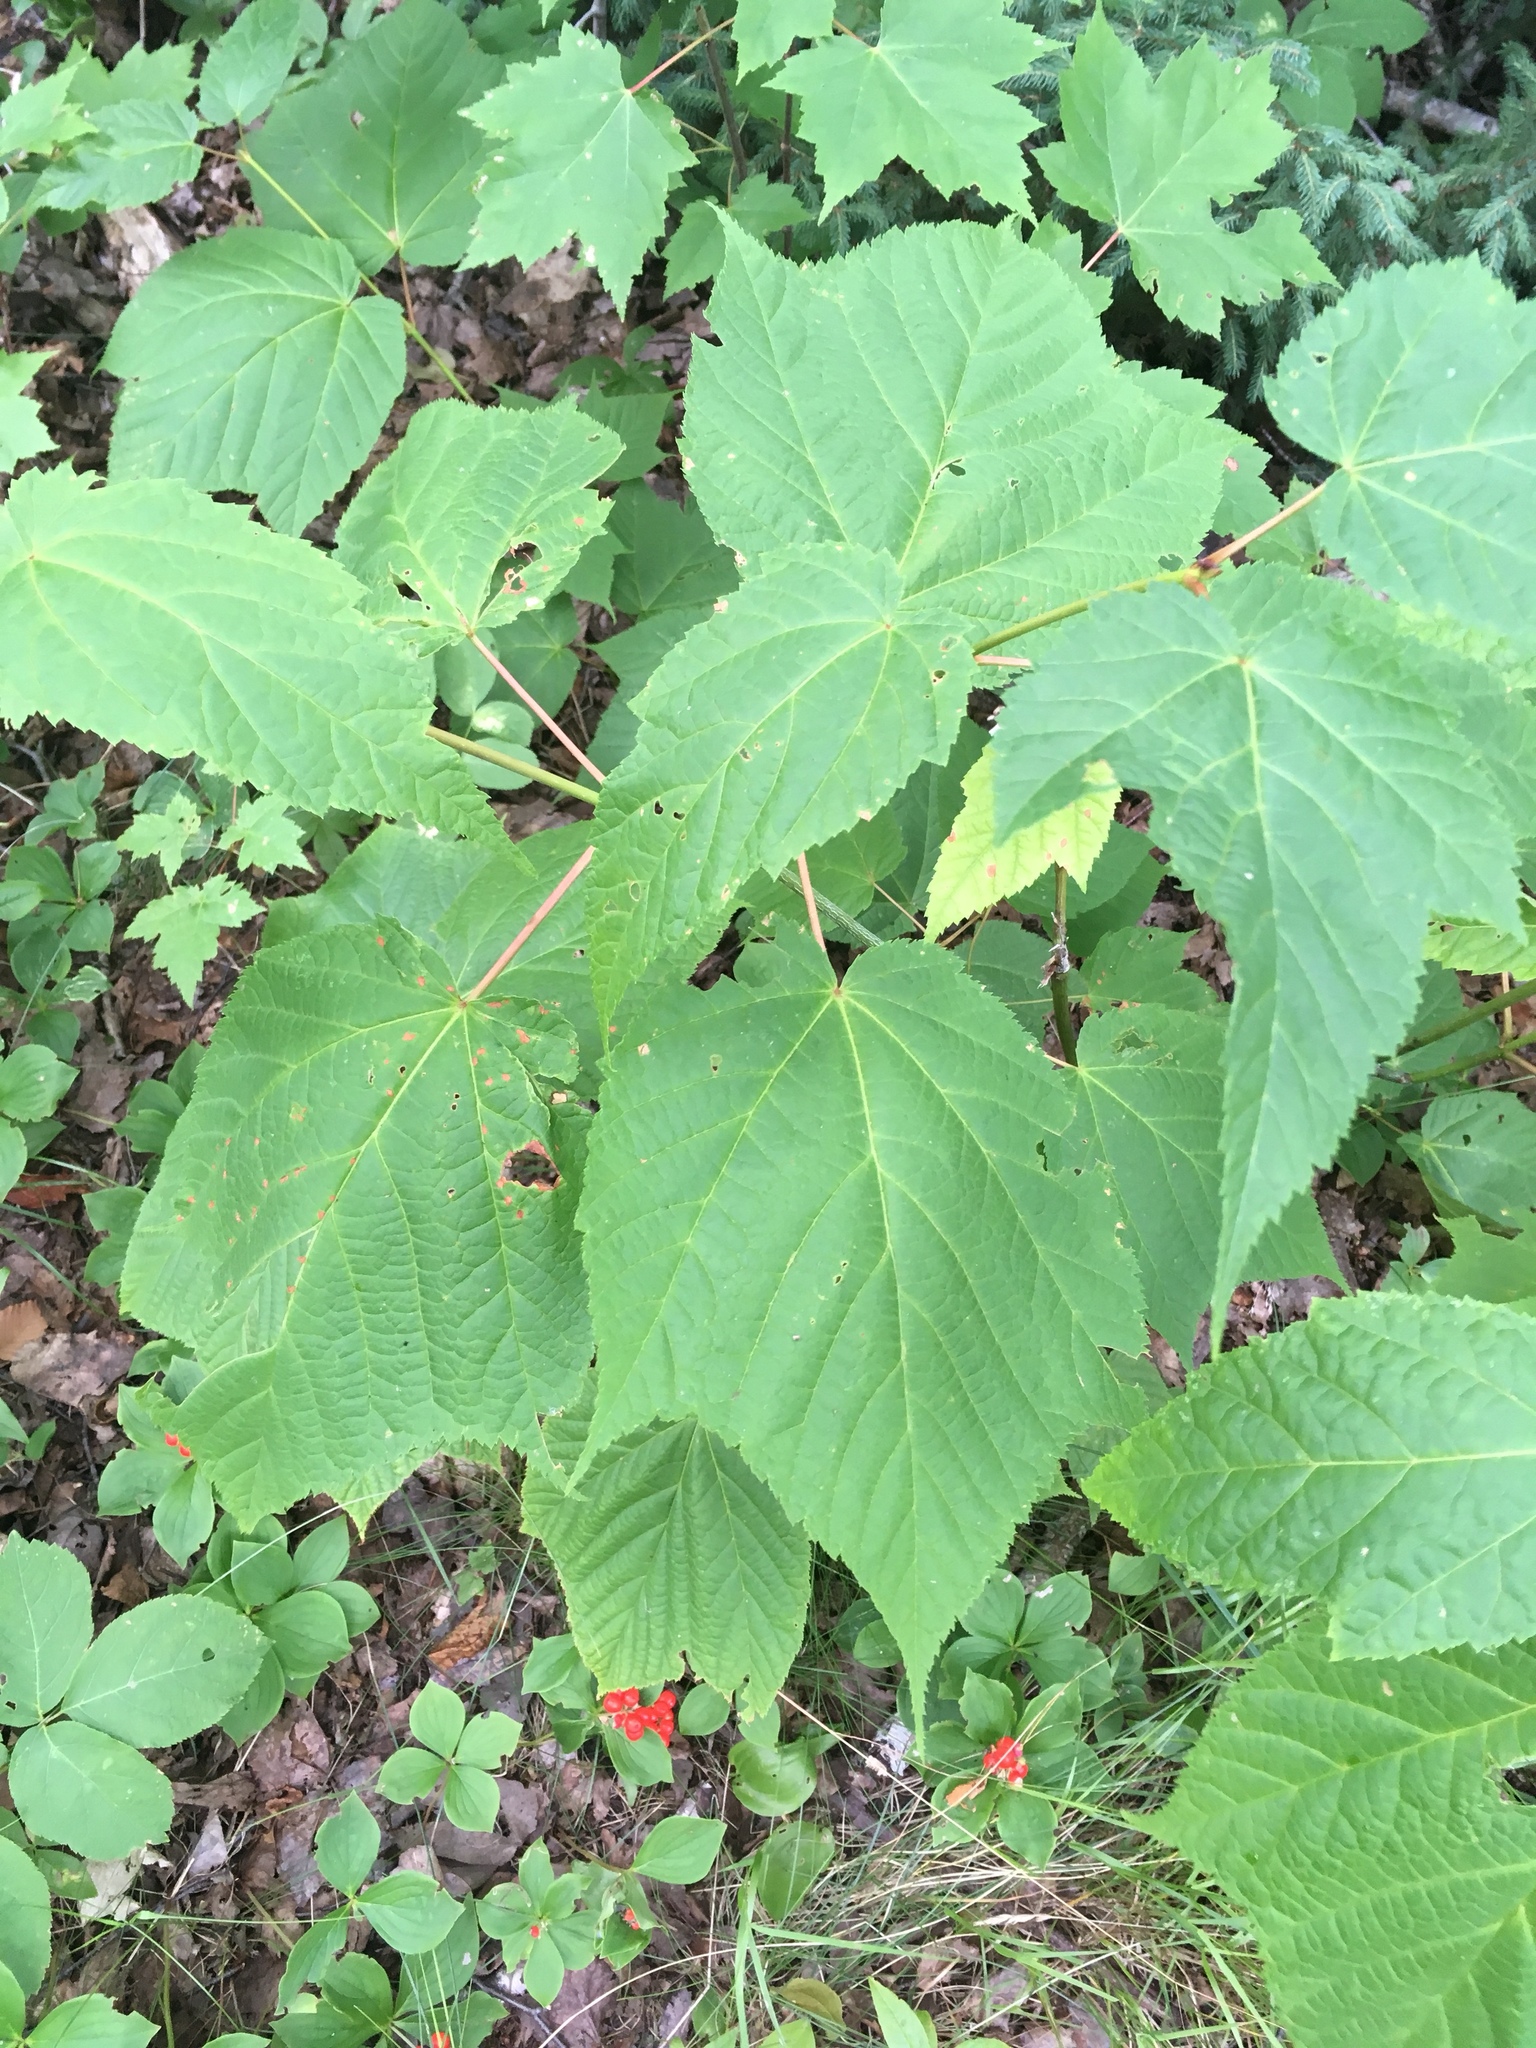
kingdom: Plantae
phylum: Tracheophyta
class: Magnoliopsida
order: Sapindales
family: Sapindaceae
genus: Acer
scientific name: Acer pensylvanicum
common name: Moosewood
